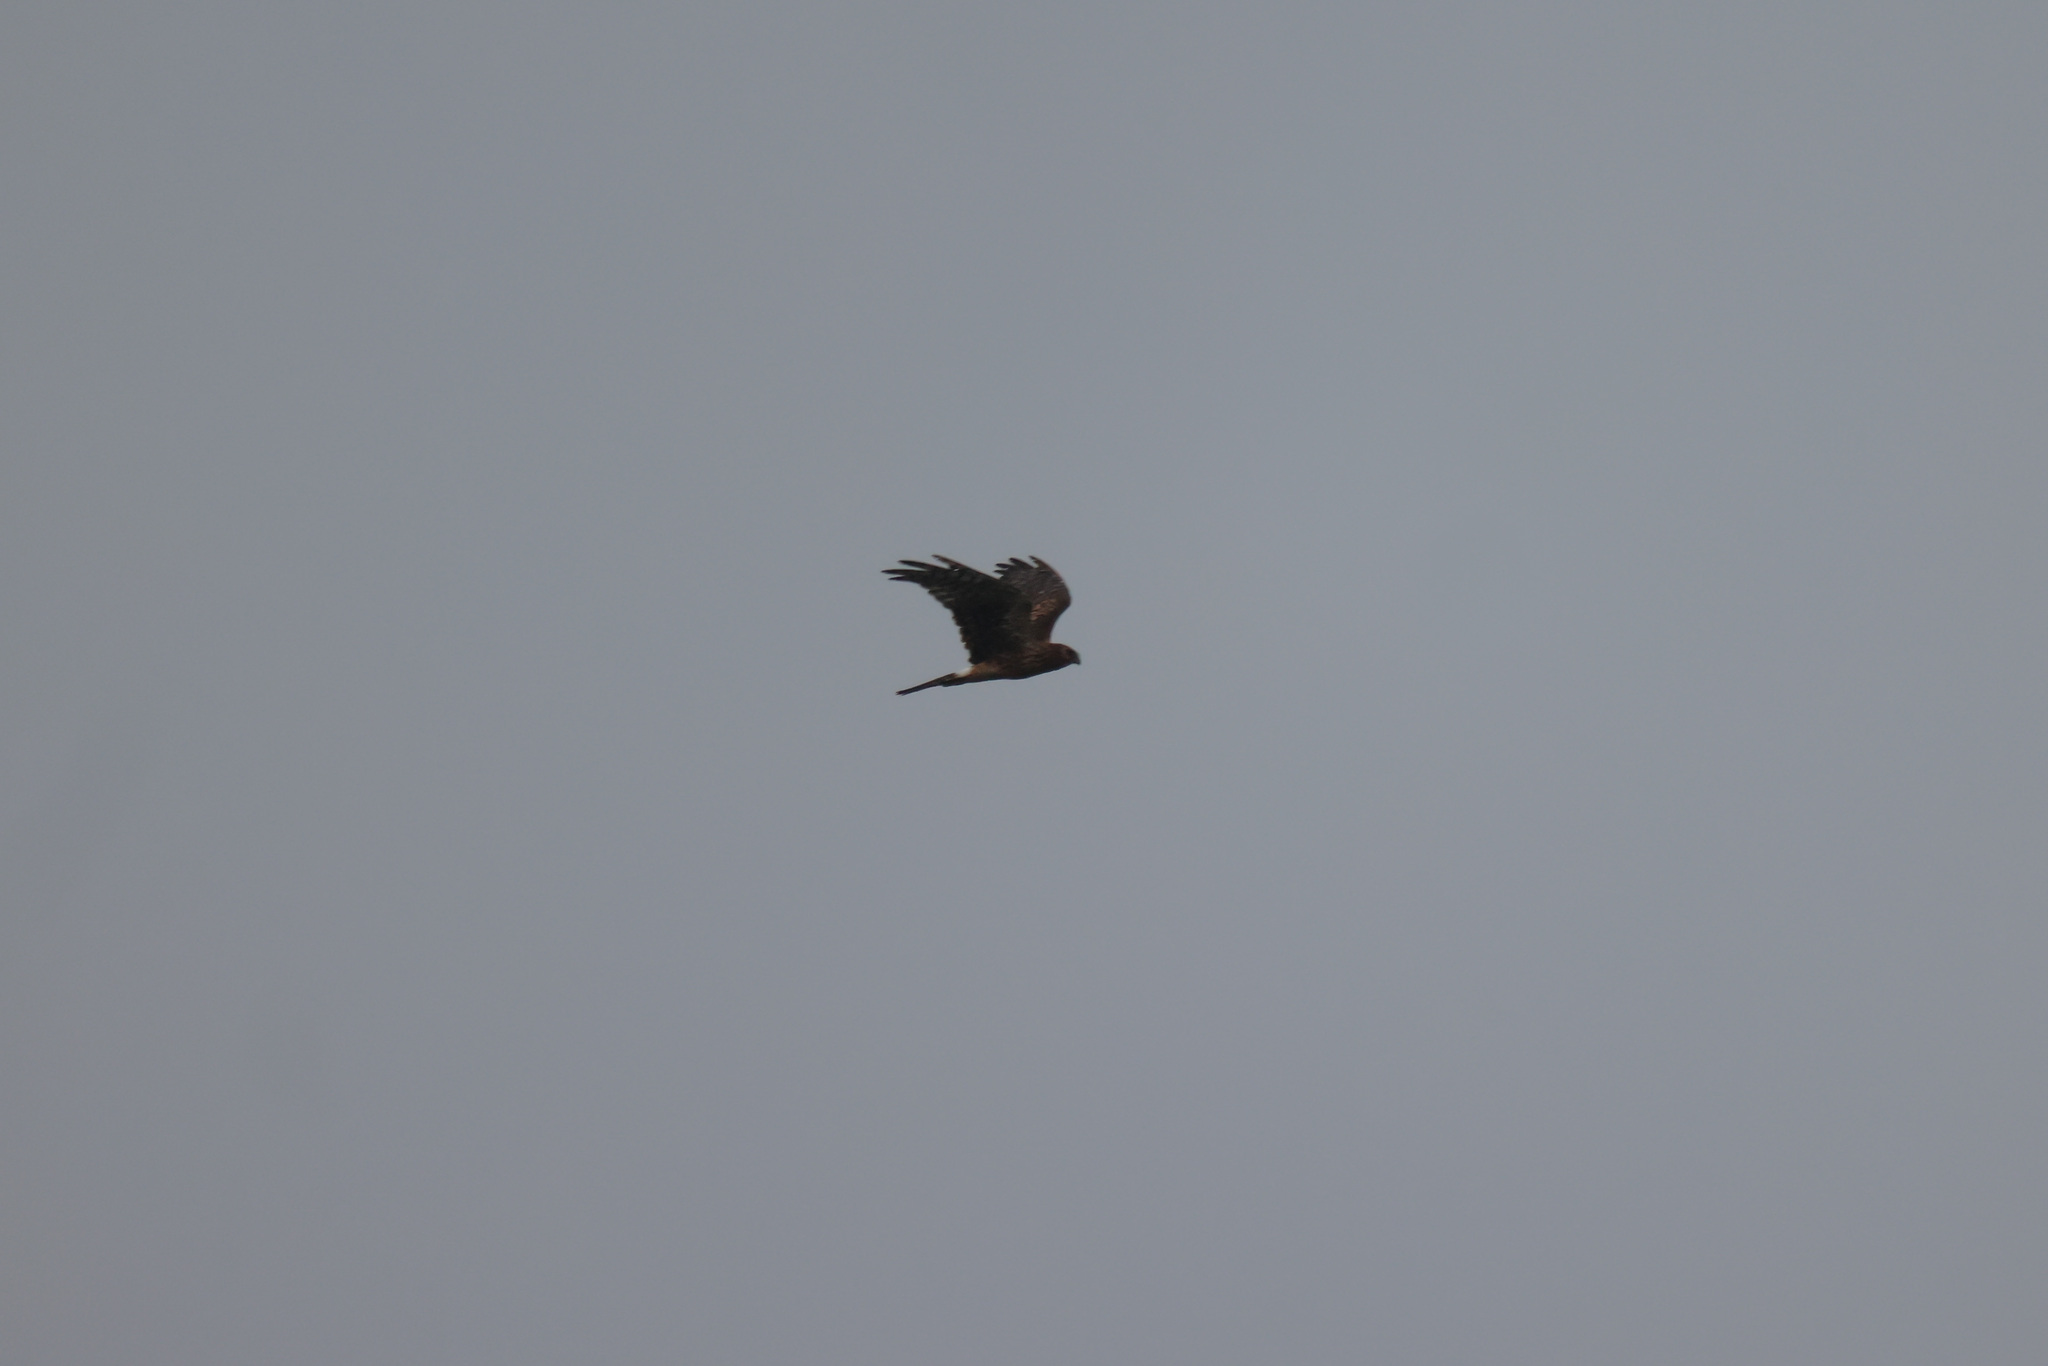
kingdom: Animalia
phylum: Chordata
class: Aves
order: Accipitriformes
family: Accipitridae
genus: Circus
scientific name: Circus cyaneus
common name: Hen harrier
